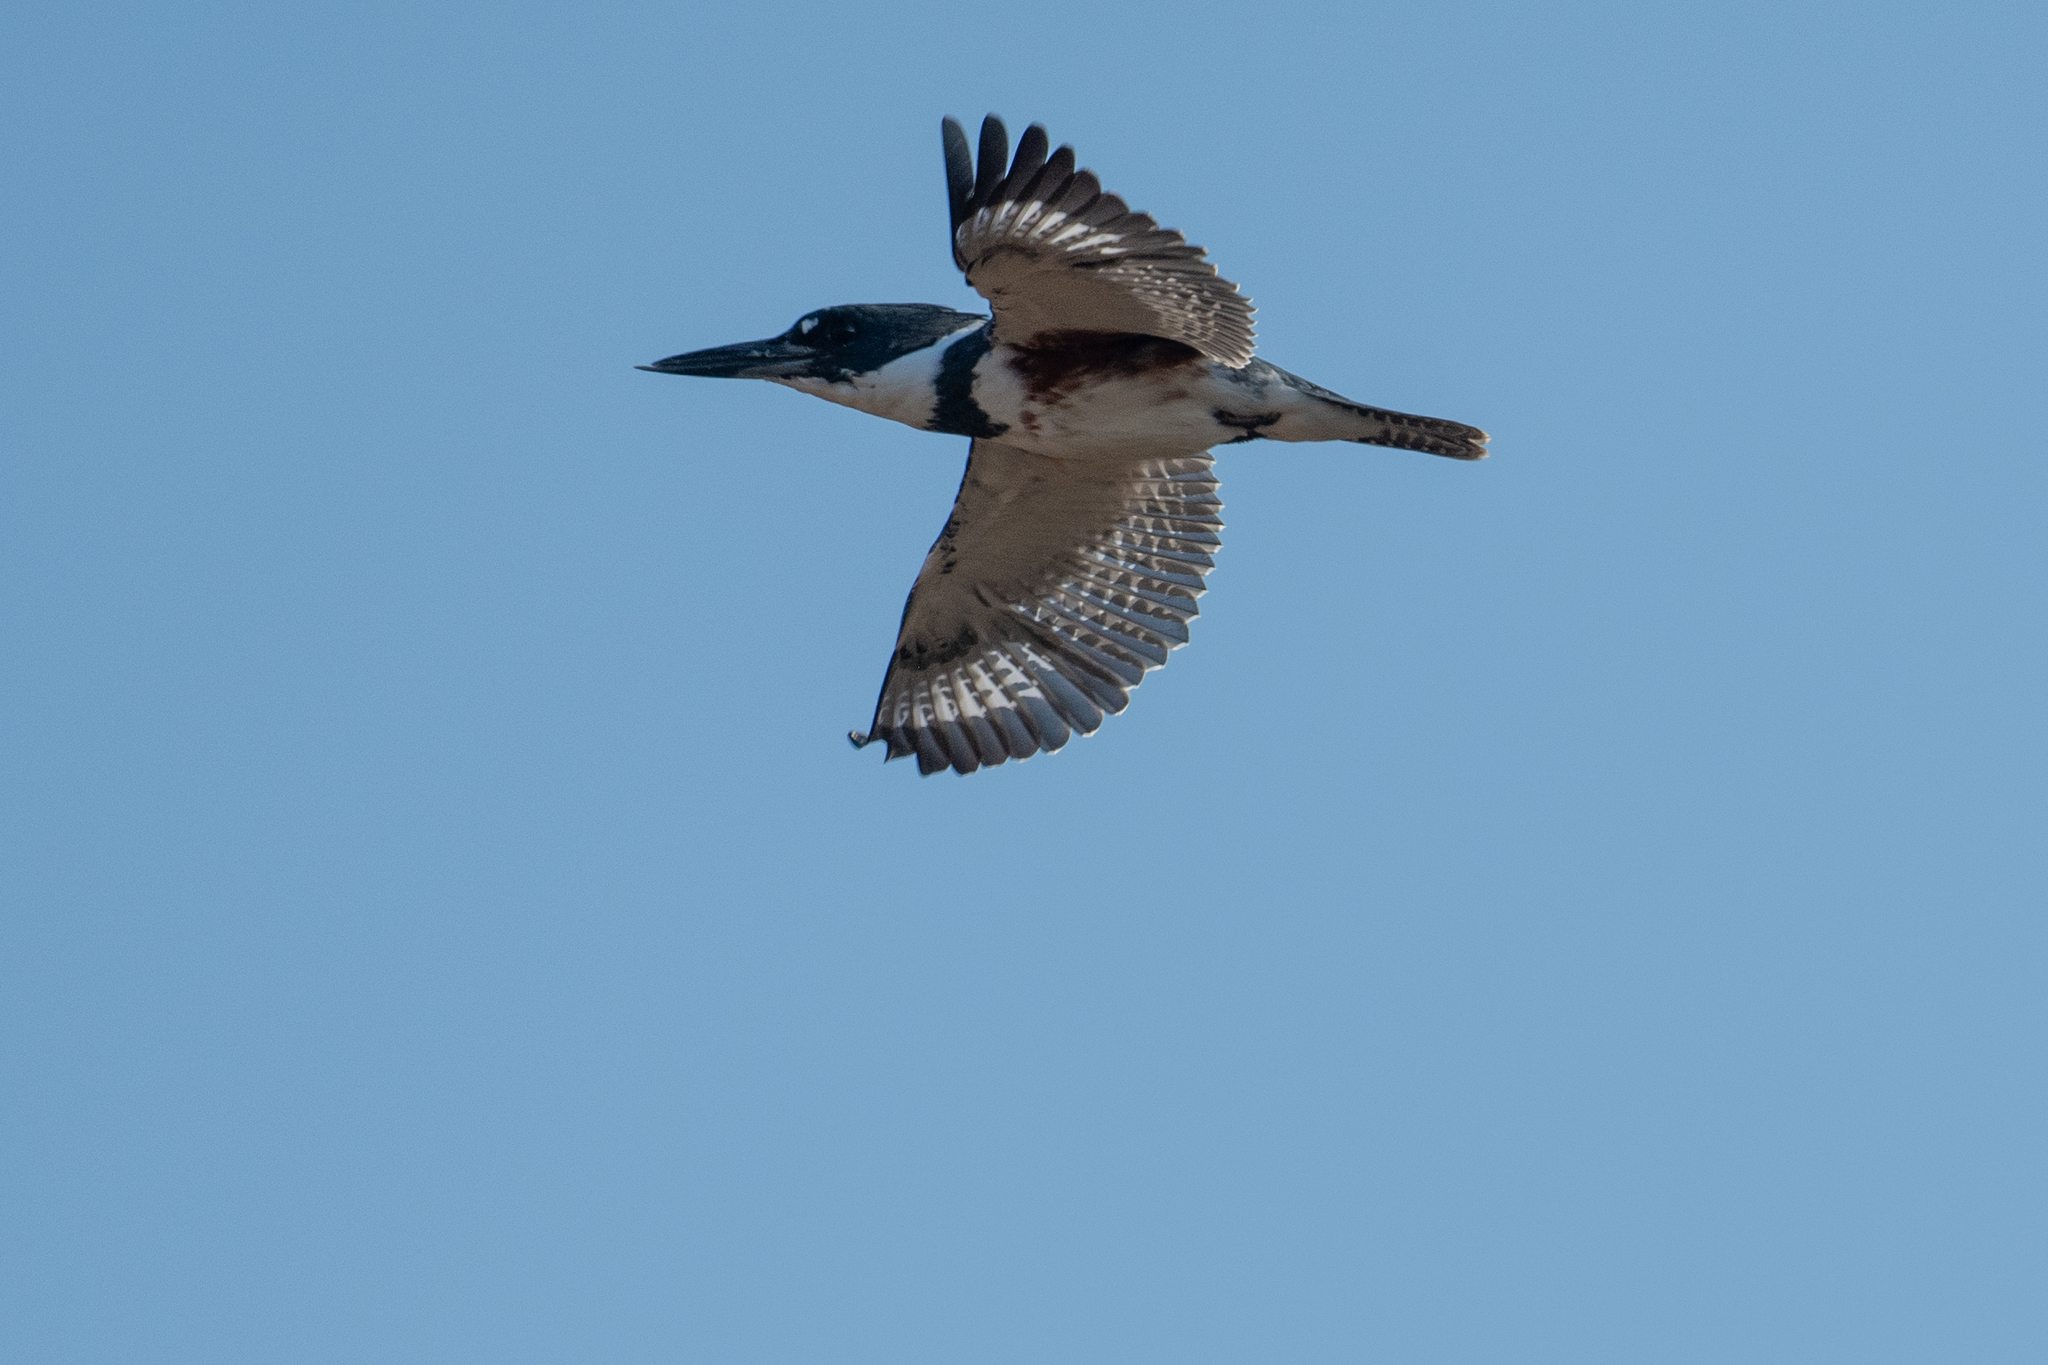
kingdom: Animalia
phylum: Chordata
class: Aves
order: Coraciiformes
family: Alcedinidae
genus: Megaceryle
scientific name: Megaceryle alcyon
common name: Belted kingfisher
